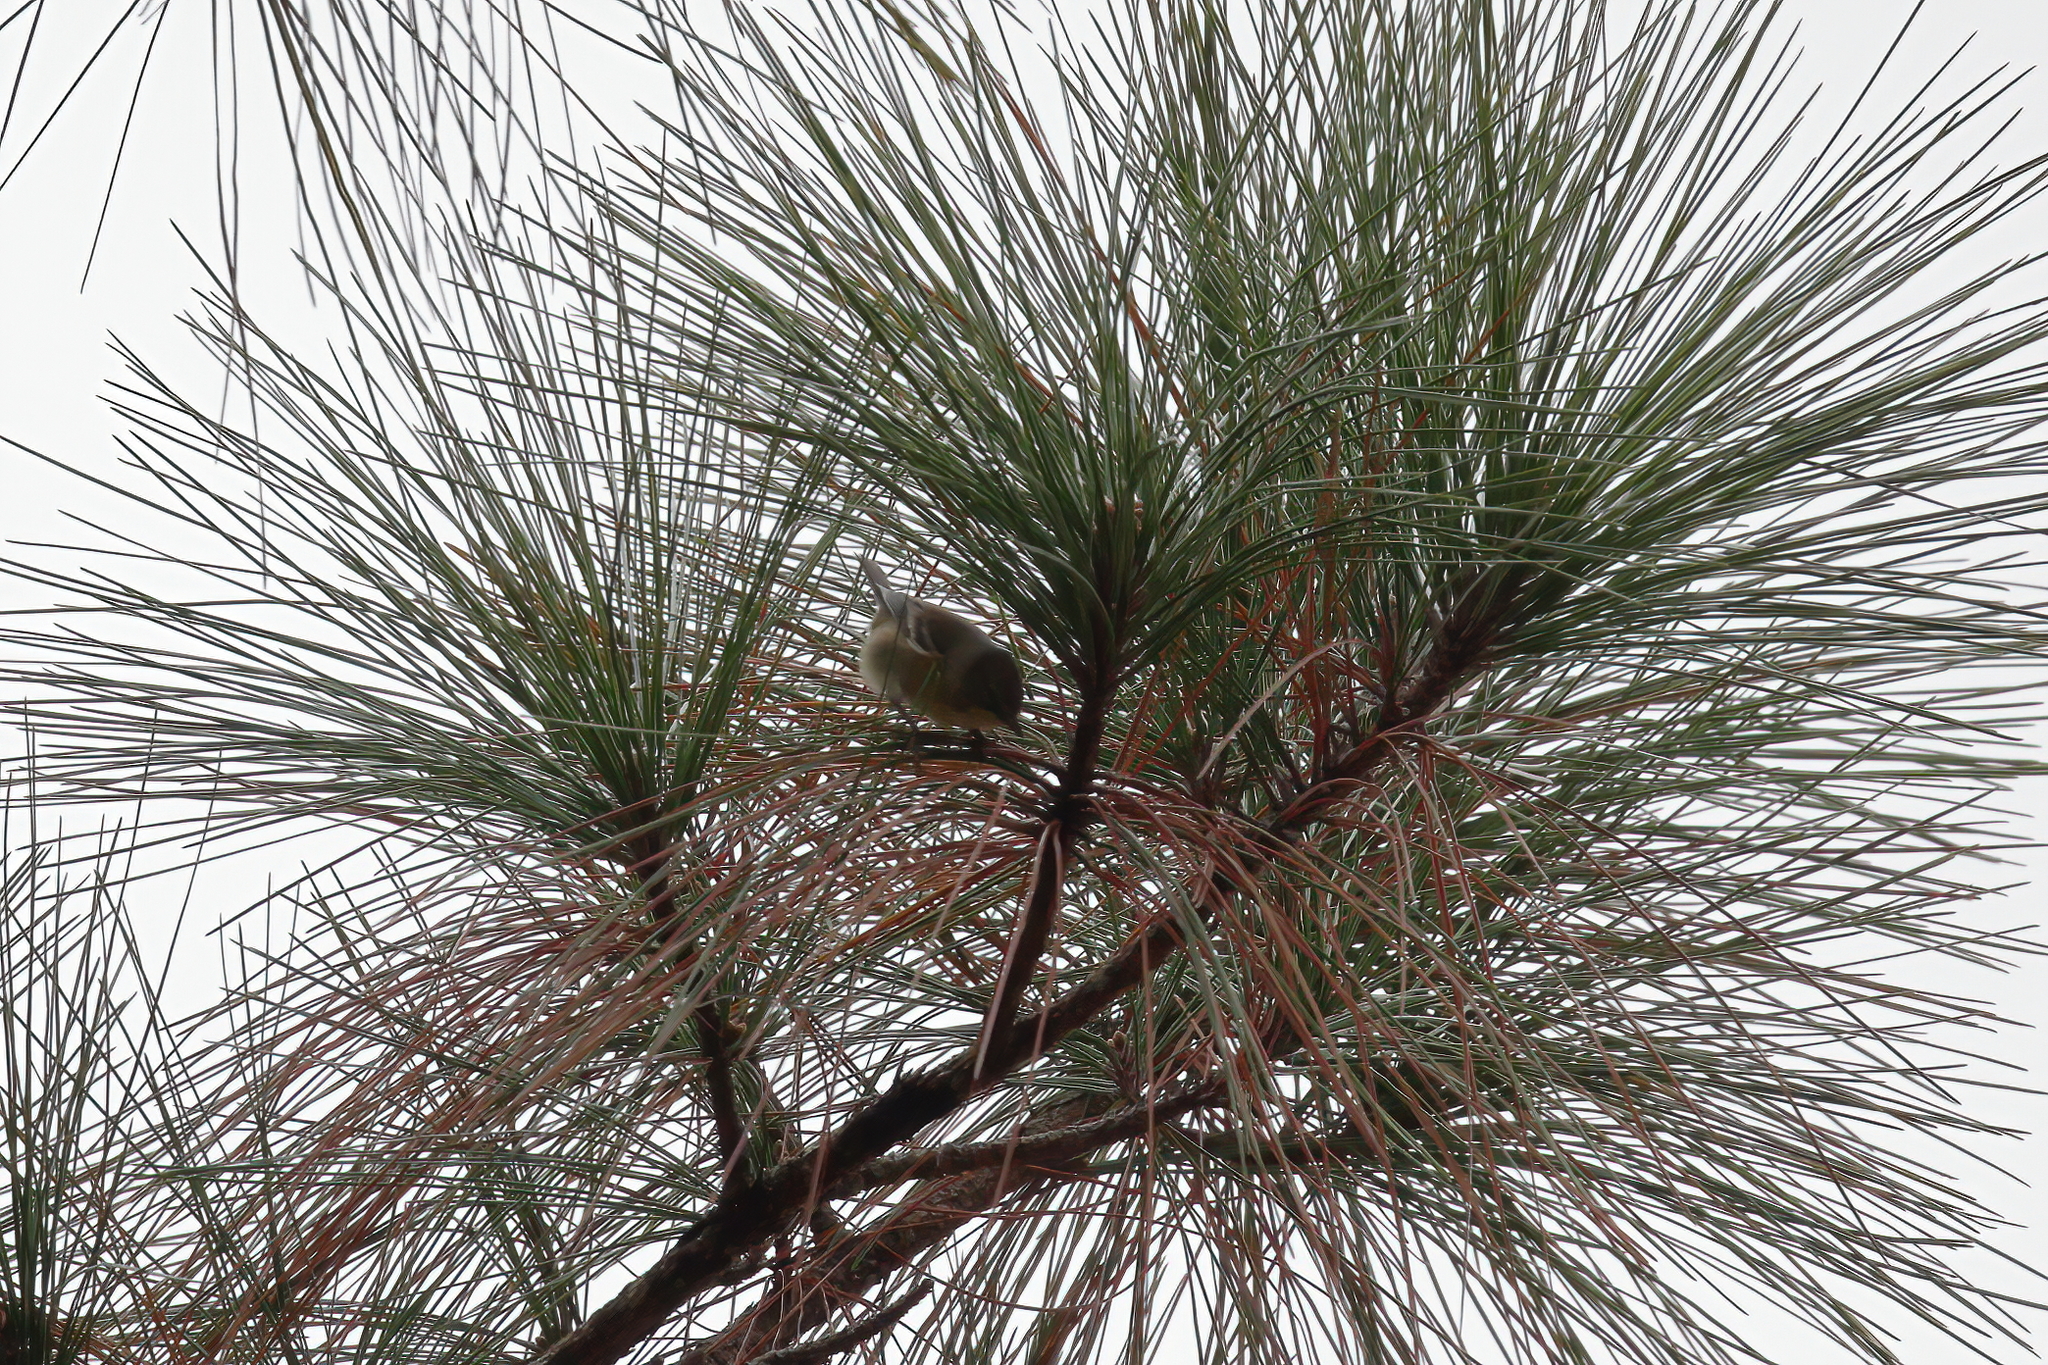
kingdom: Animalia
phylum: Chordata
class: Aves
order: Passeriformes
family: Parulidae
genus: Setophaga
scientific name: Setophaga pinus
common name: Pine warbler
